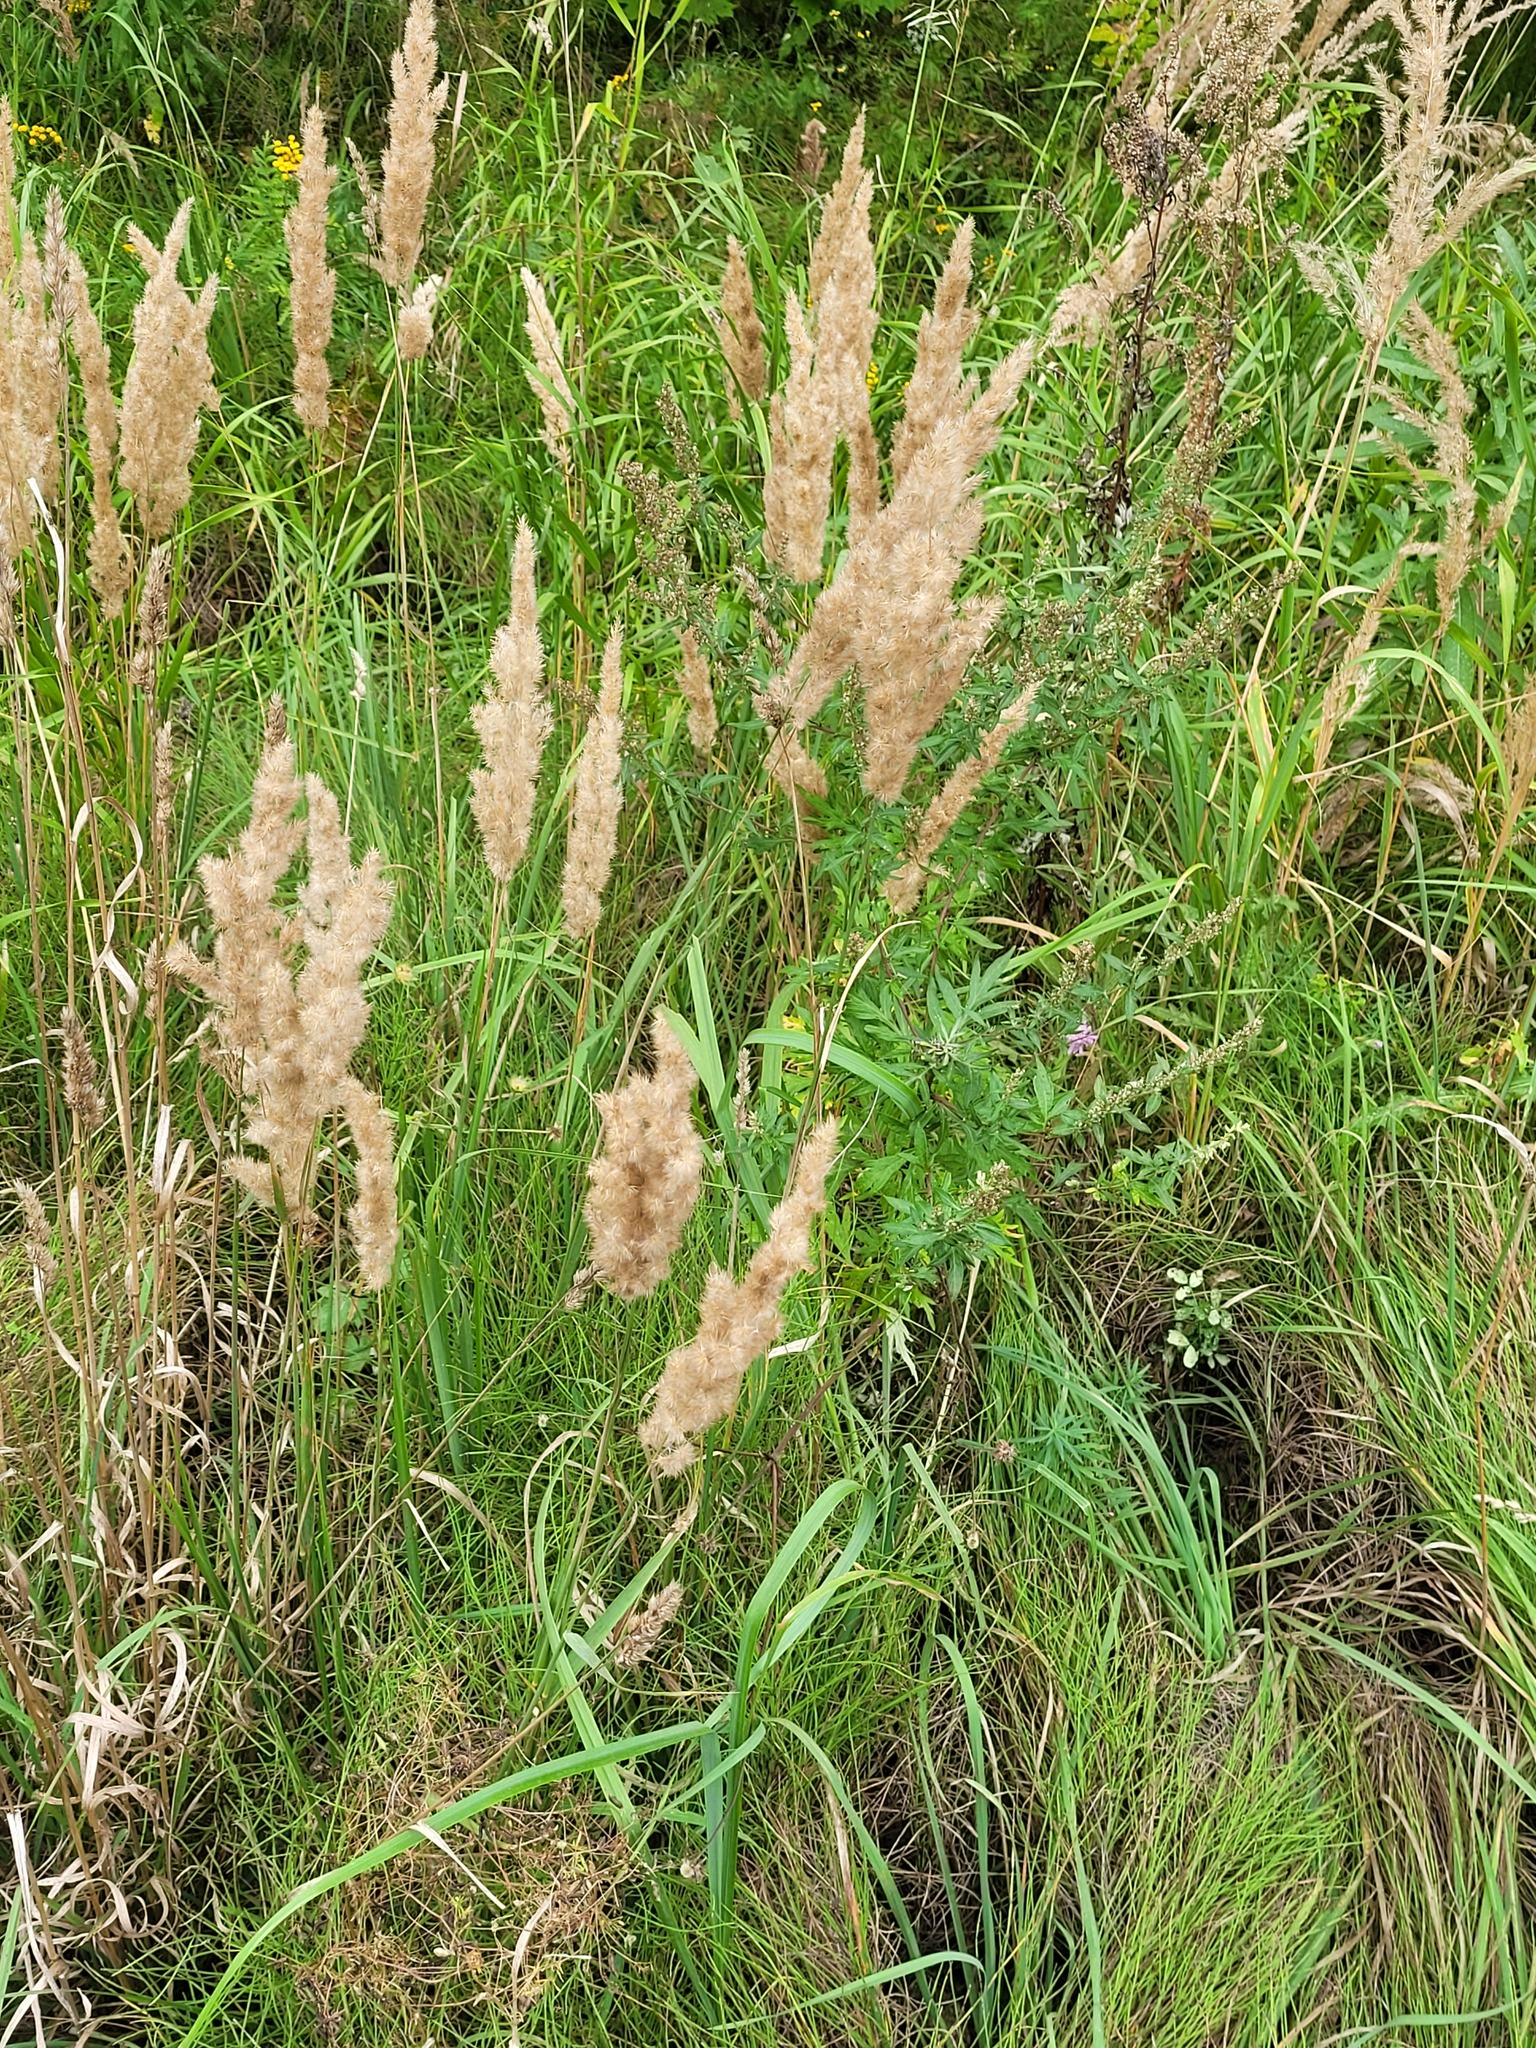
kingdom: Plantae
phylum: Tracheophyta
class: Liliopsida
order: Poales
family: Poaceae
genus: Calamagrostis
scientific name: Calamagrostis epigejos
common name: Wood small-reed
